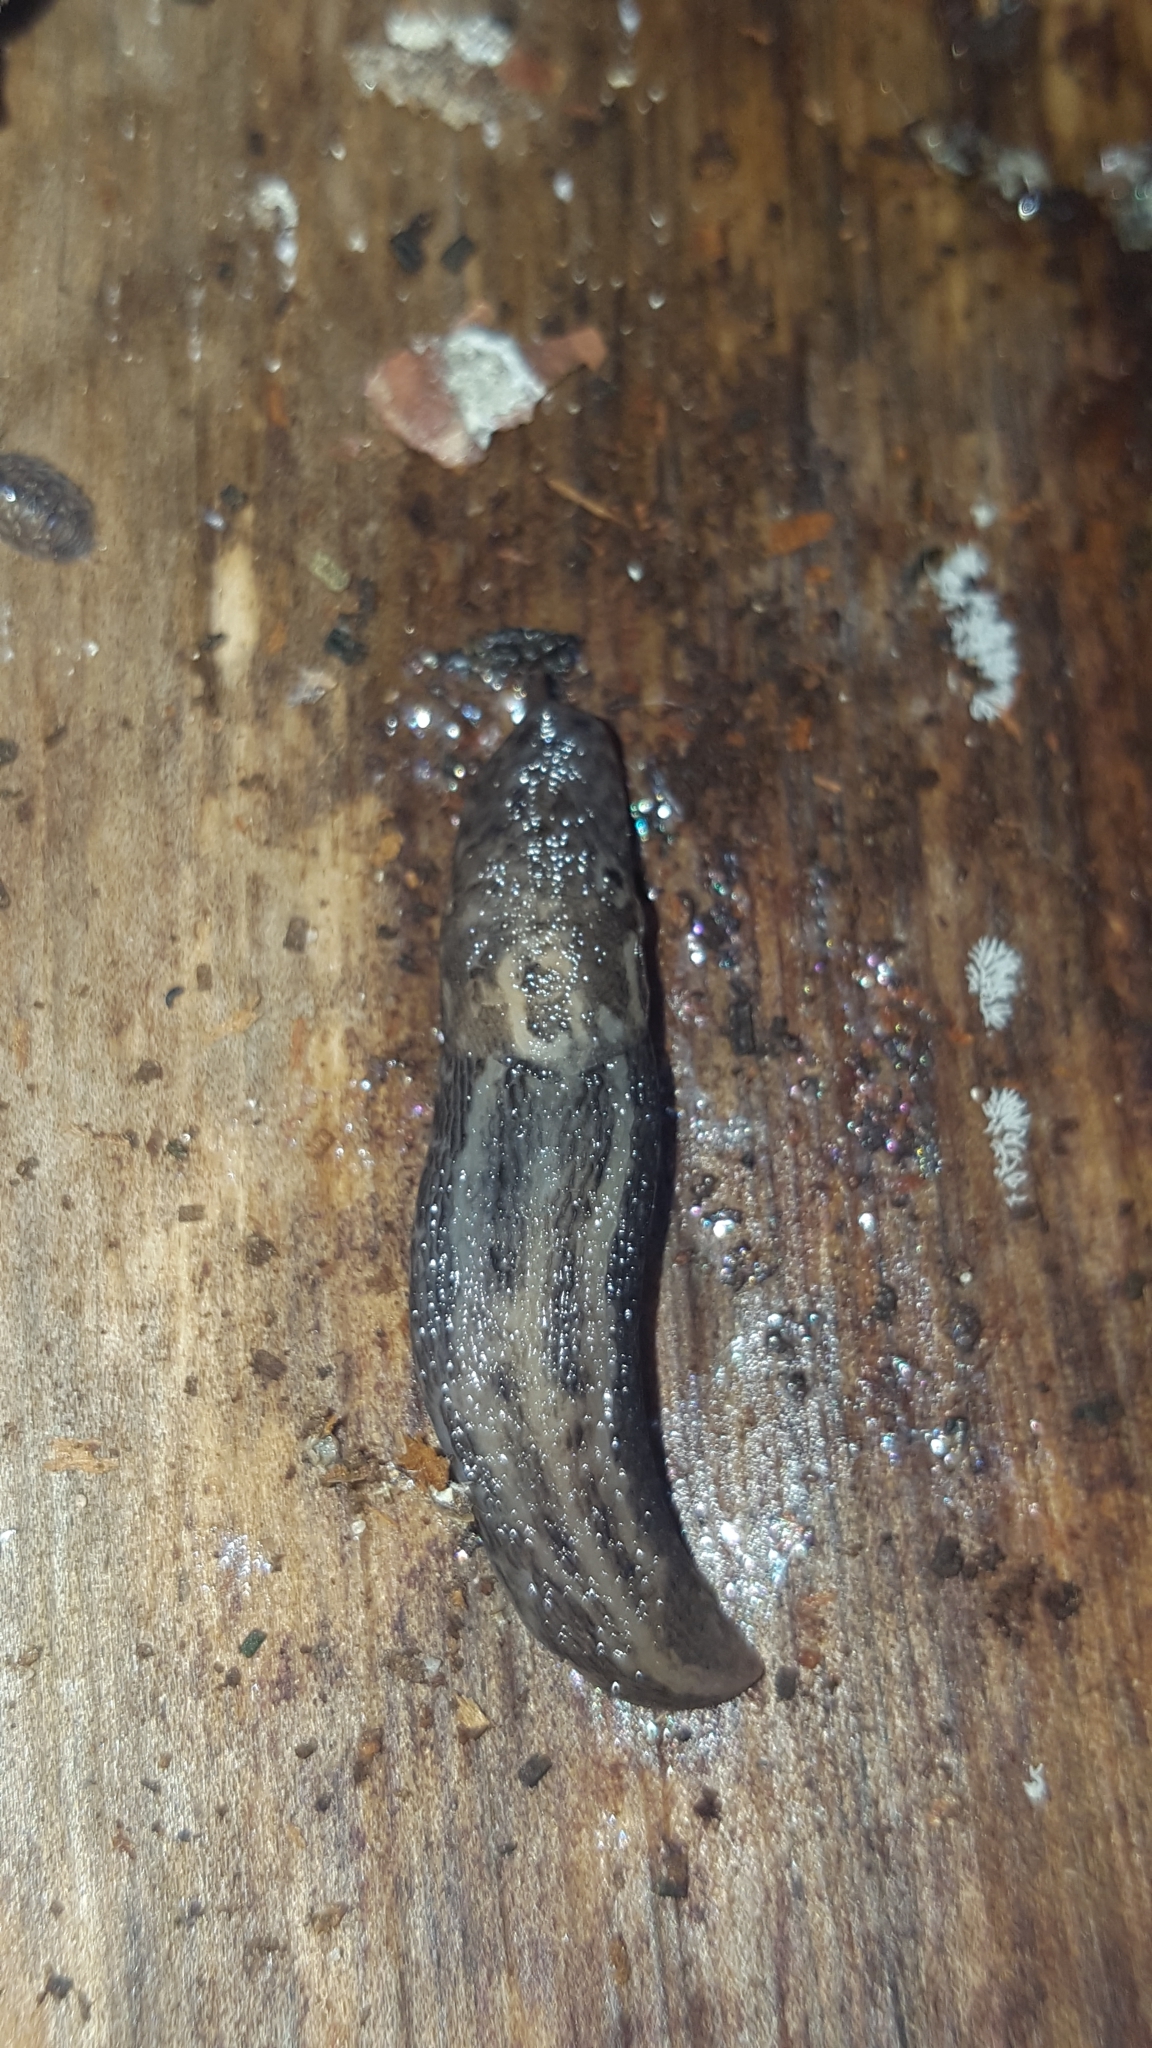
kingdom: Animalia
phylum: Mollusca
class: Gastropoda
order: Stylommatophora
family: Limacidae
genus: Limax
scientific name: Limax maximus
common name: Great grey slug
